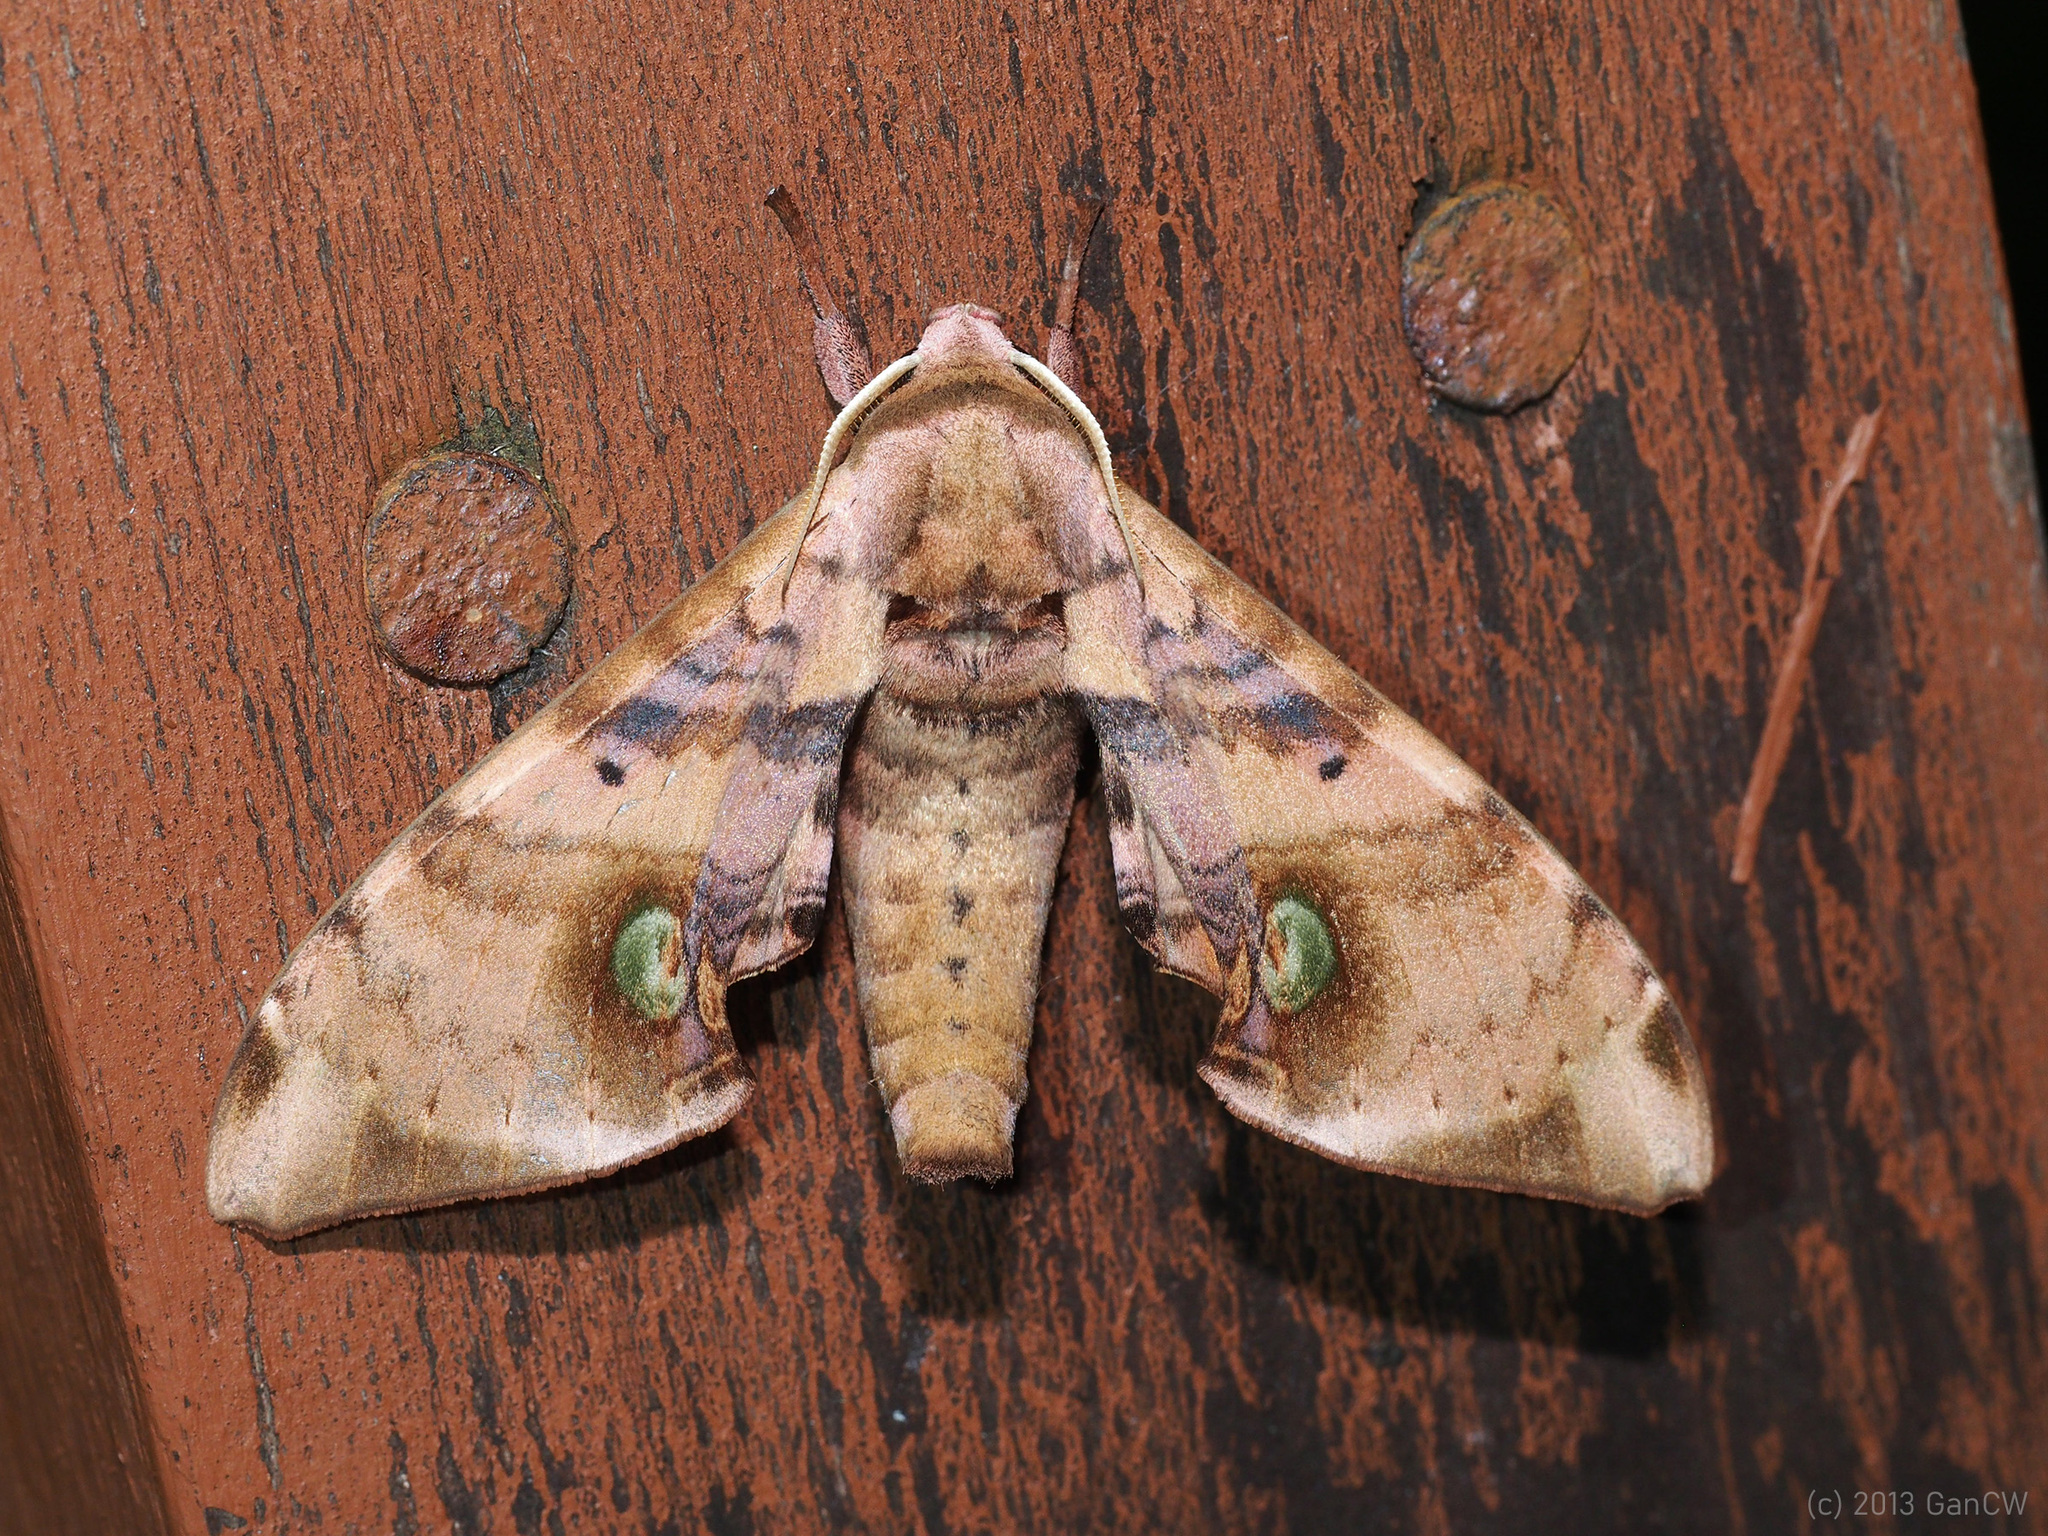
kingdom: Animalia
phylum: Arthropoda
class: Insecta
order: Lepidoptera
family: Sphingidae
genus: Daphnusa
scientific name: Daphnusa ocellaris
